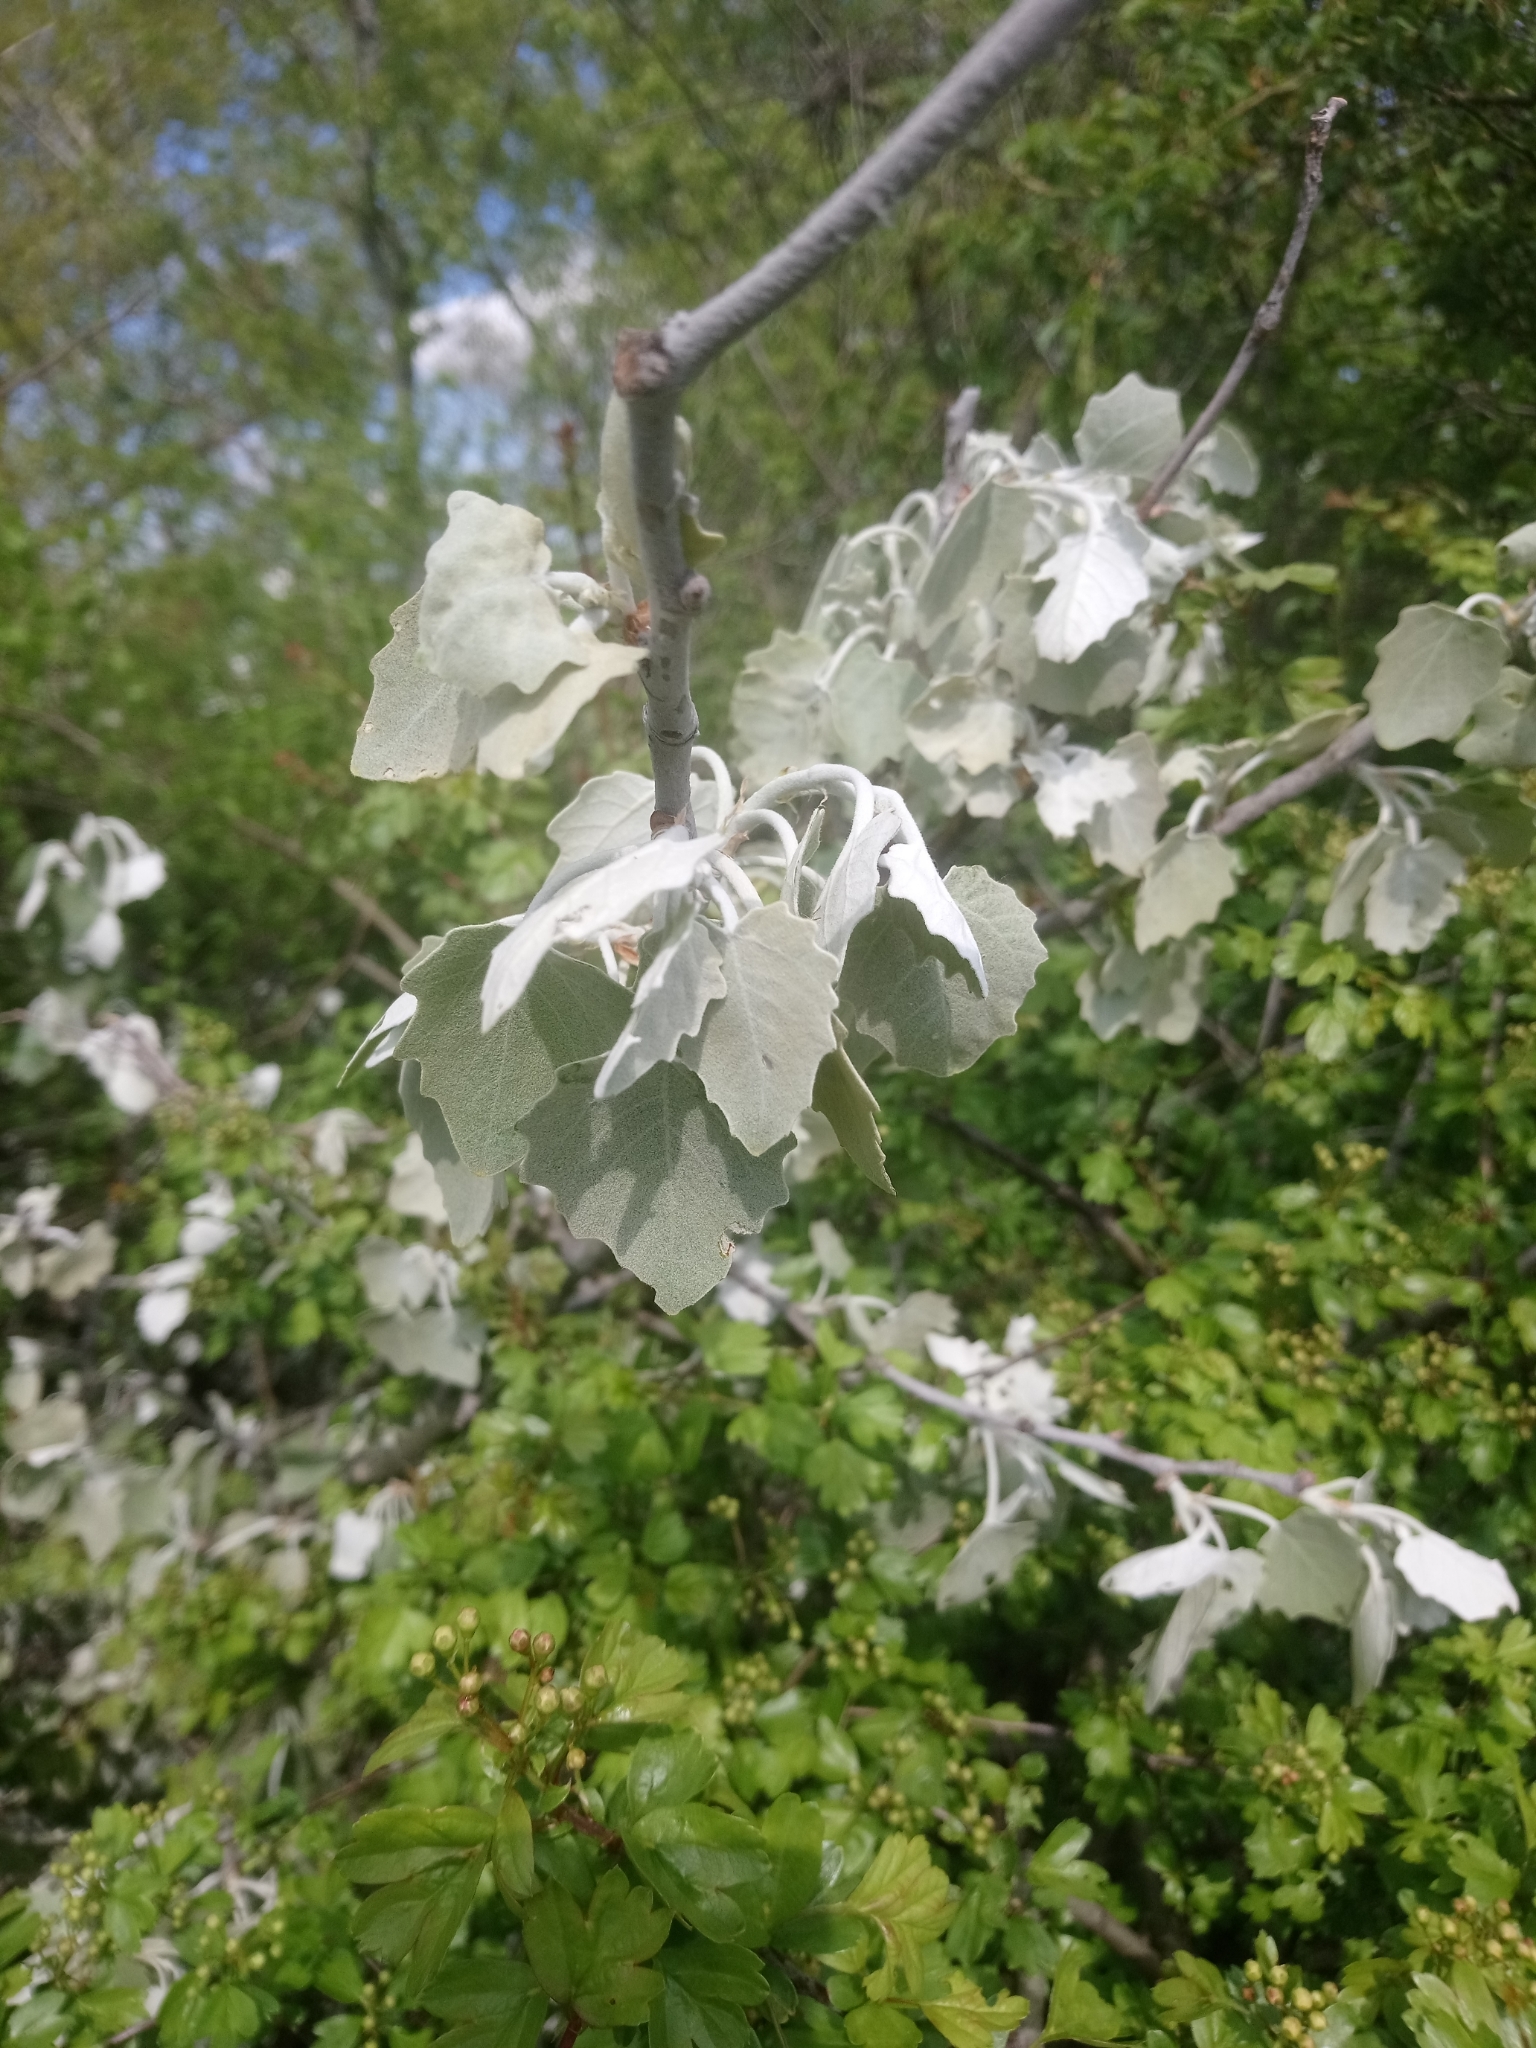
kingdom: Plantae
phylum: Tracheophyta
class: Magnoliopsida
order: Malpighiales
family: Salicaceae
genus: Populus
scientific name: Populus alba
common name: White poplar
